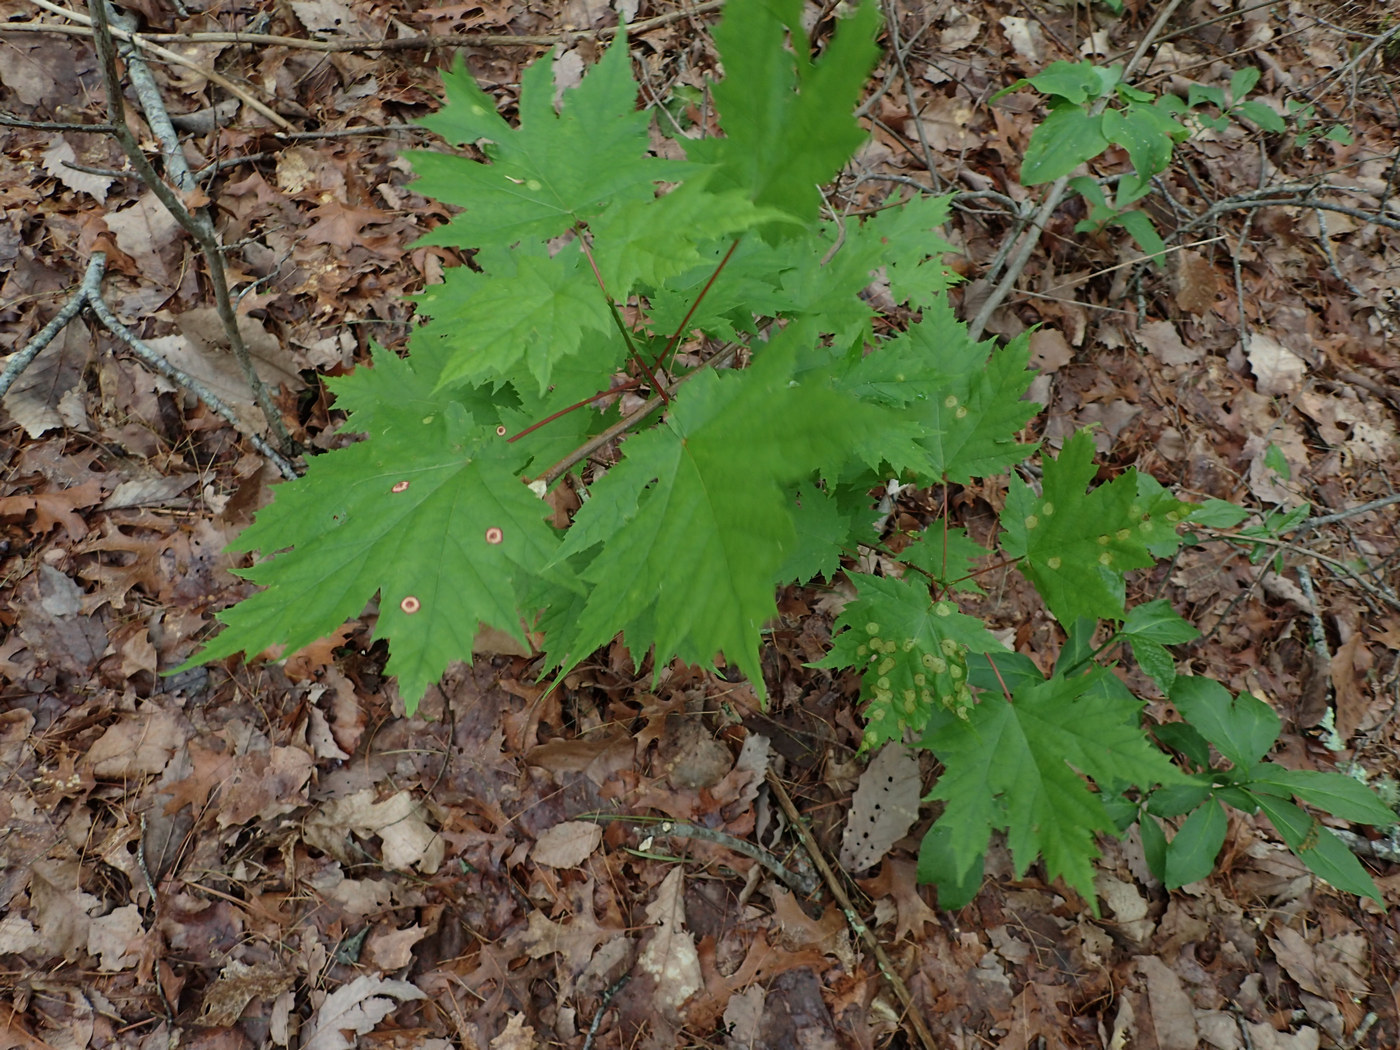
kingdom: Animalia
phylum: Arthropoda
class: Insecta
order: Diptera
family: Cecidomyiidae
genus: Acericecis
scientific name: Acericecis ocellaris
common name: Ocellate gall midge
